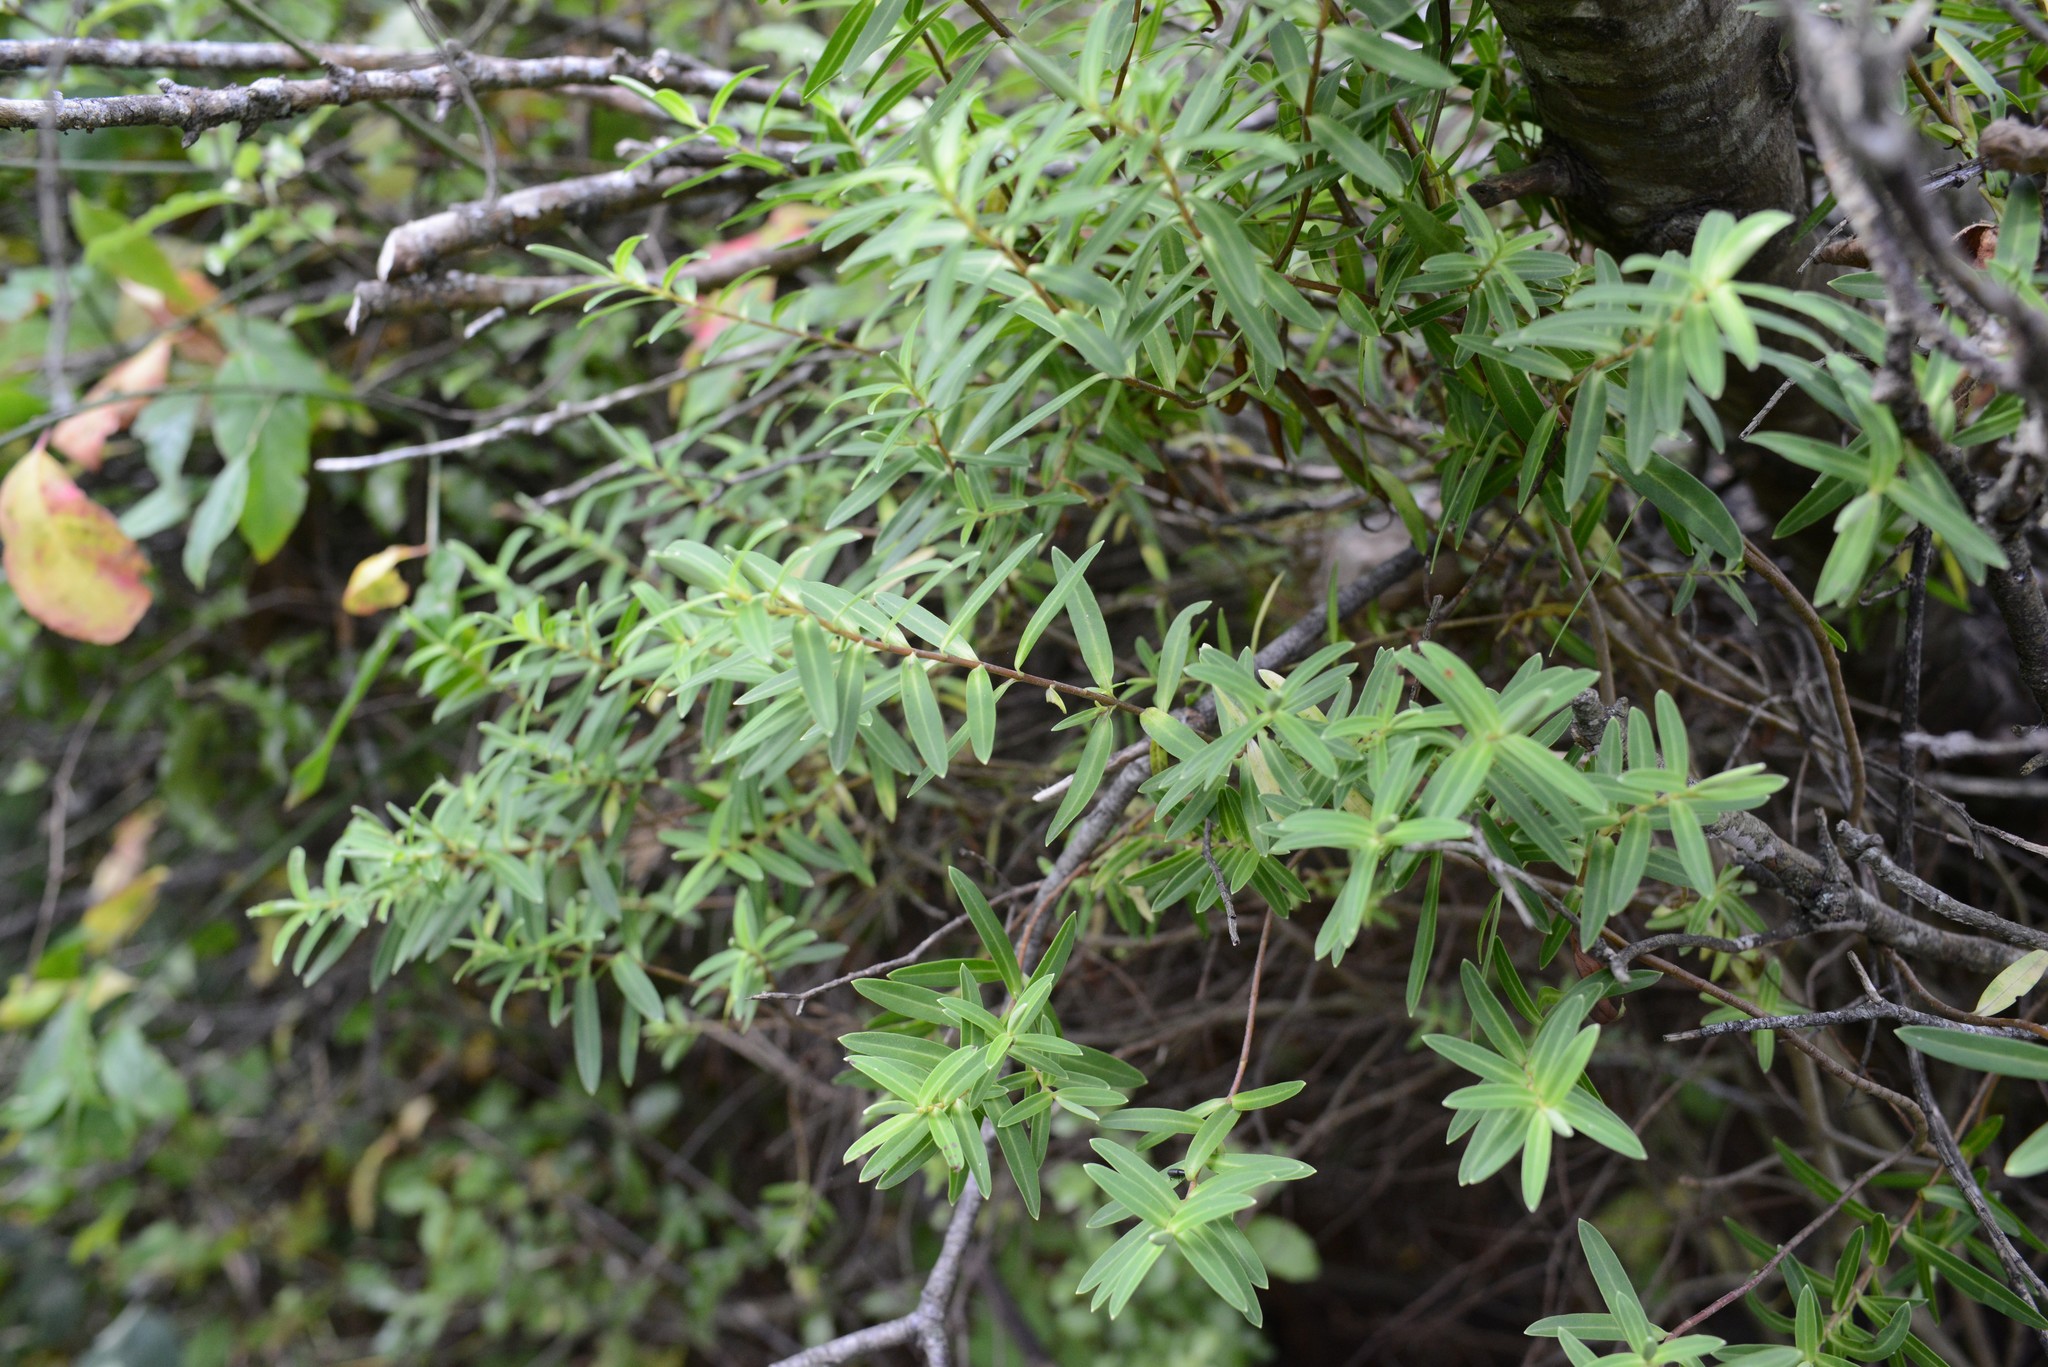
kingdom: Plantae
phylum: Tracheophyta
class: Magnoliopsida
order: Lamiales
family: Plantaginaceae
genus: Veronica
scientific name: Veronica strictissima
